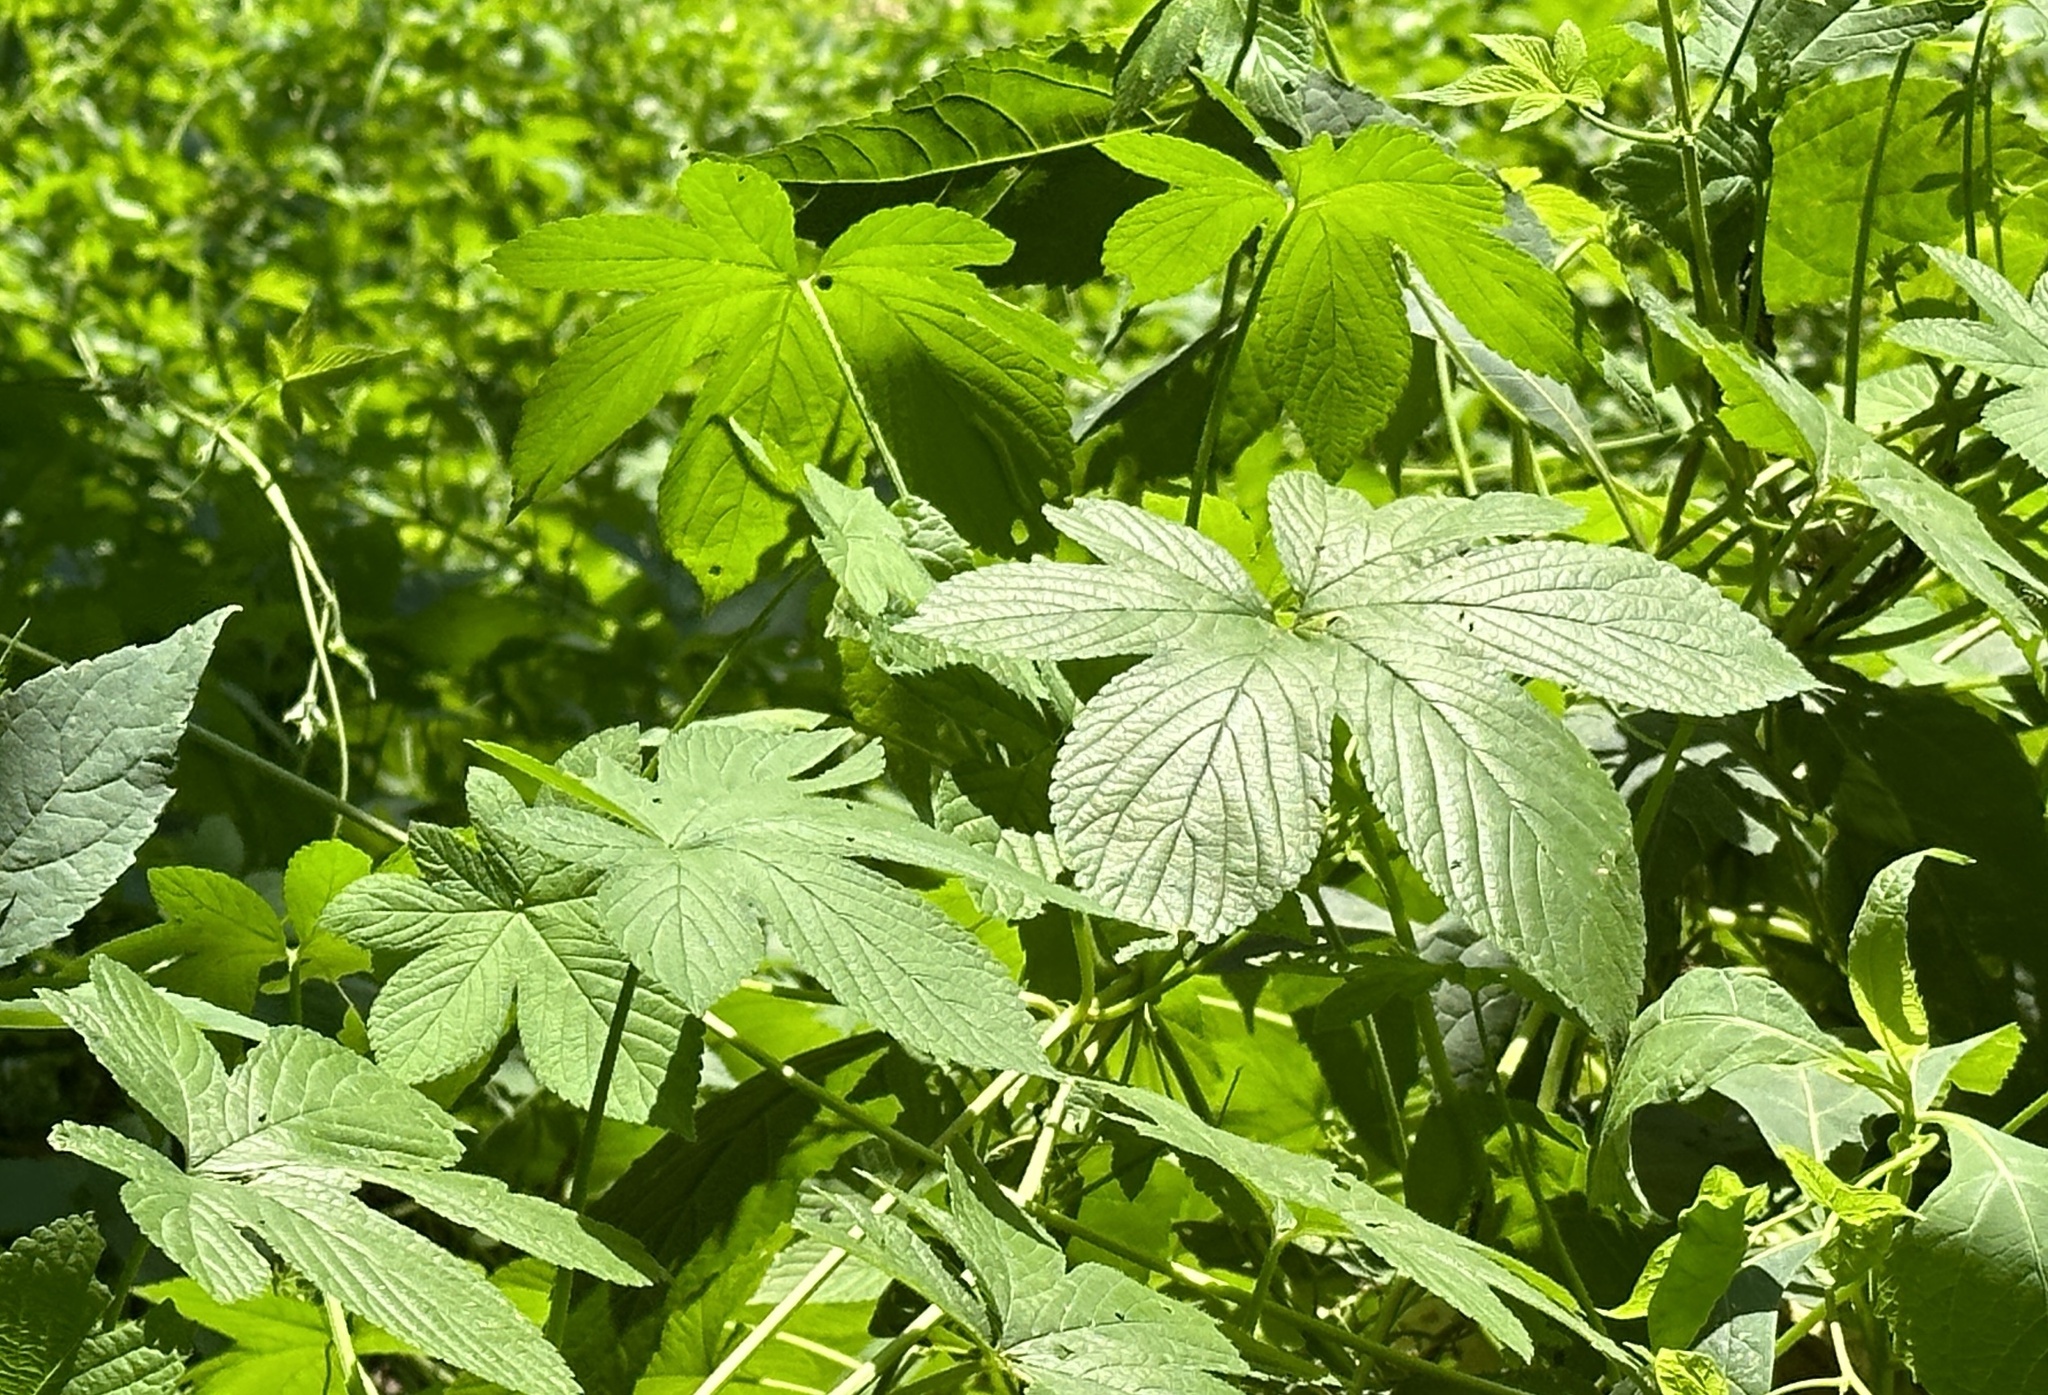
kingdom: Plantae
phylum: Tracheophyta
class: Magnoliopsida
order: Rosales
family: Cannabaceae
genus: Humulus
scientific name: Humulus scandens
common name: Japanese hop
